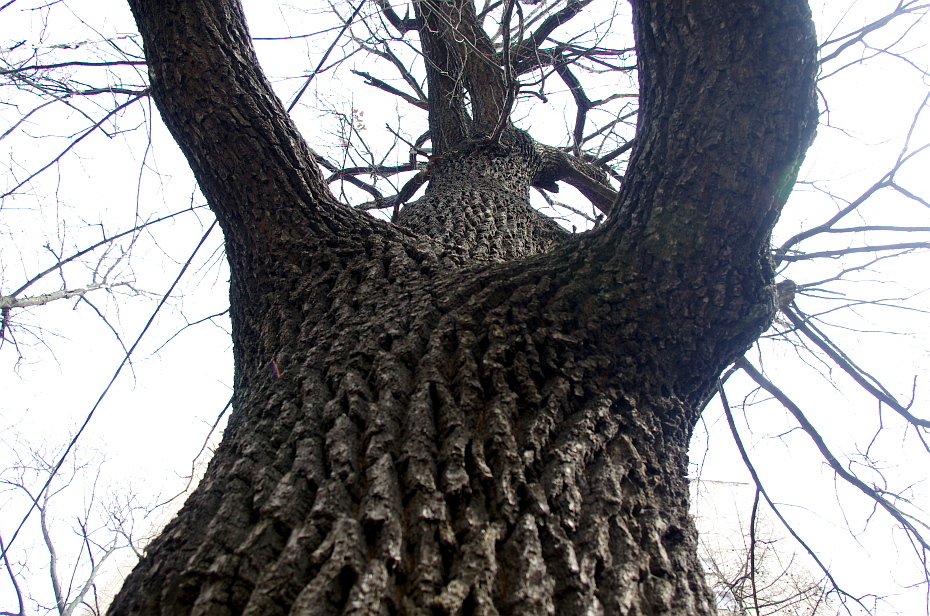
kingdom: Plantae
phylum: Tracheophyta
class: Magnoliopsida
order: Fagales
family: Fagaceae
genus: Quercus
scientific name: Quercus robur
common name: Pedunculate oak
